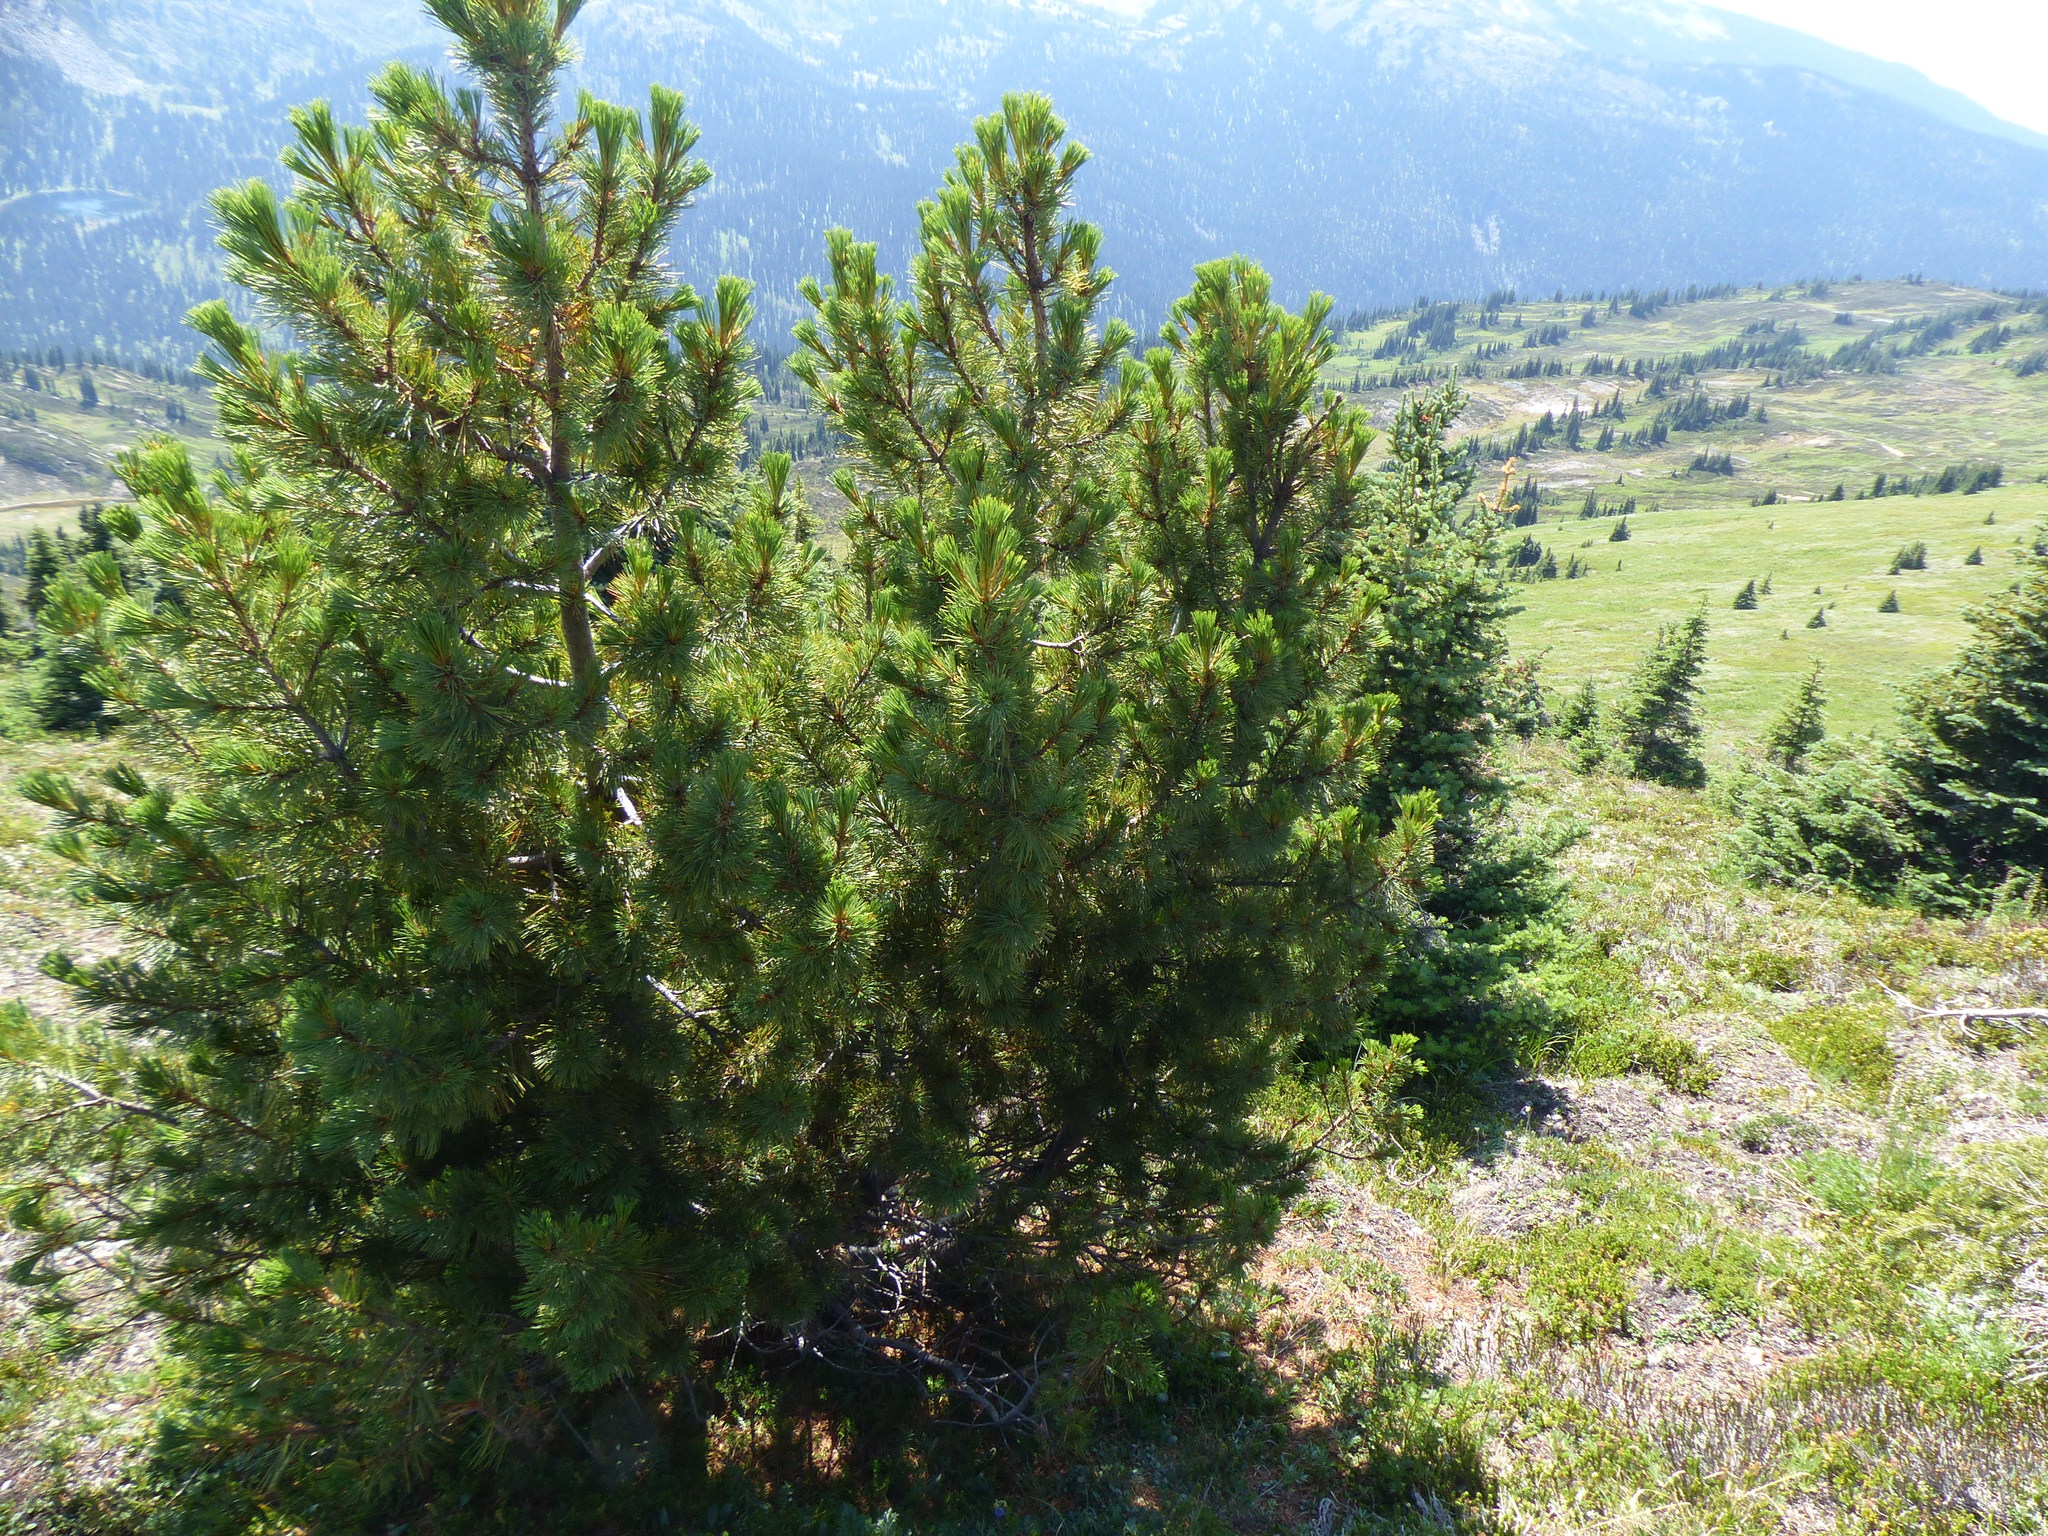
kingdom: Plantae
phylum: Tracheophyta
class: Pinopsida
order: Pinales
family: Pinaceae
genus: Pinus
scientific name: Pinus albicaulis
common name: Whitebark pine
